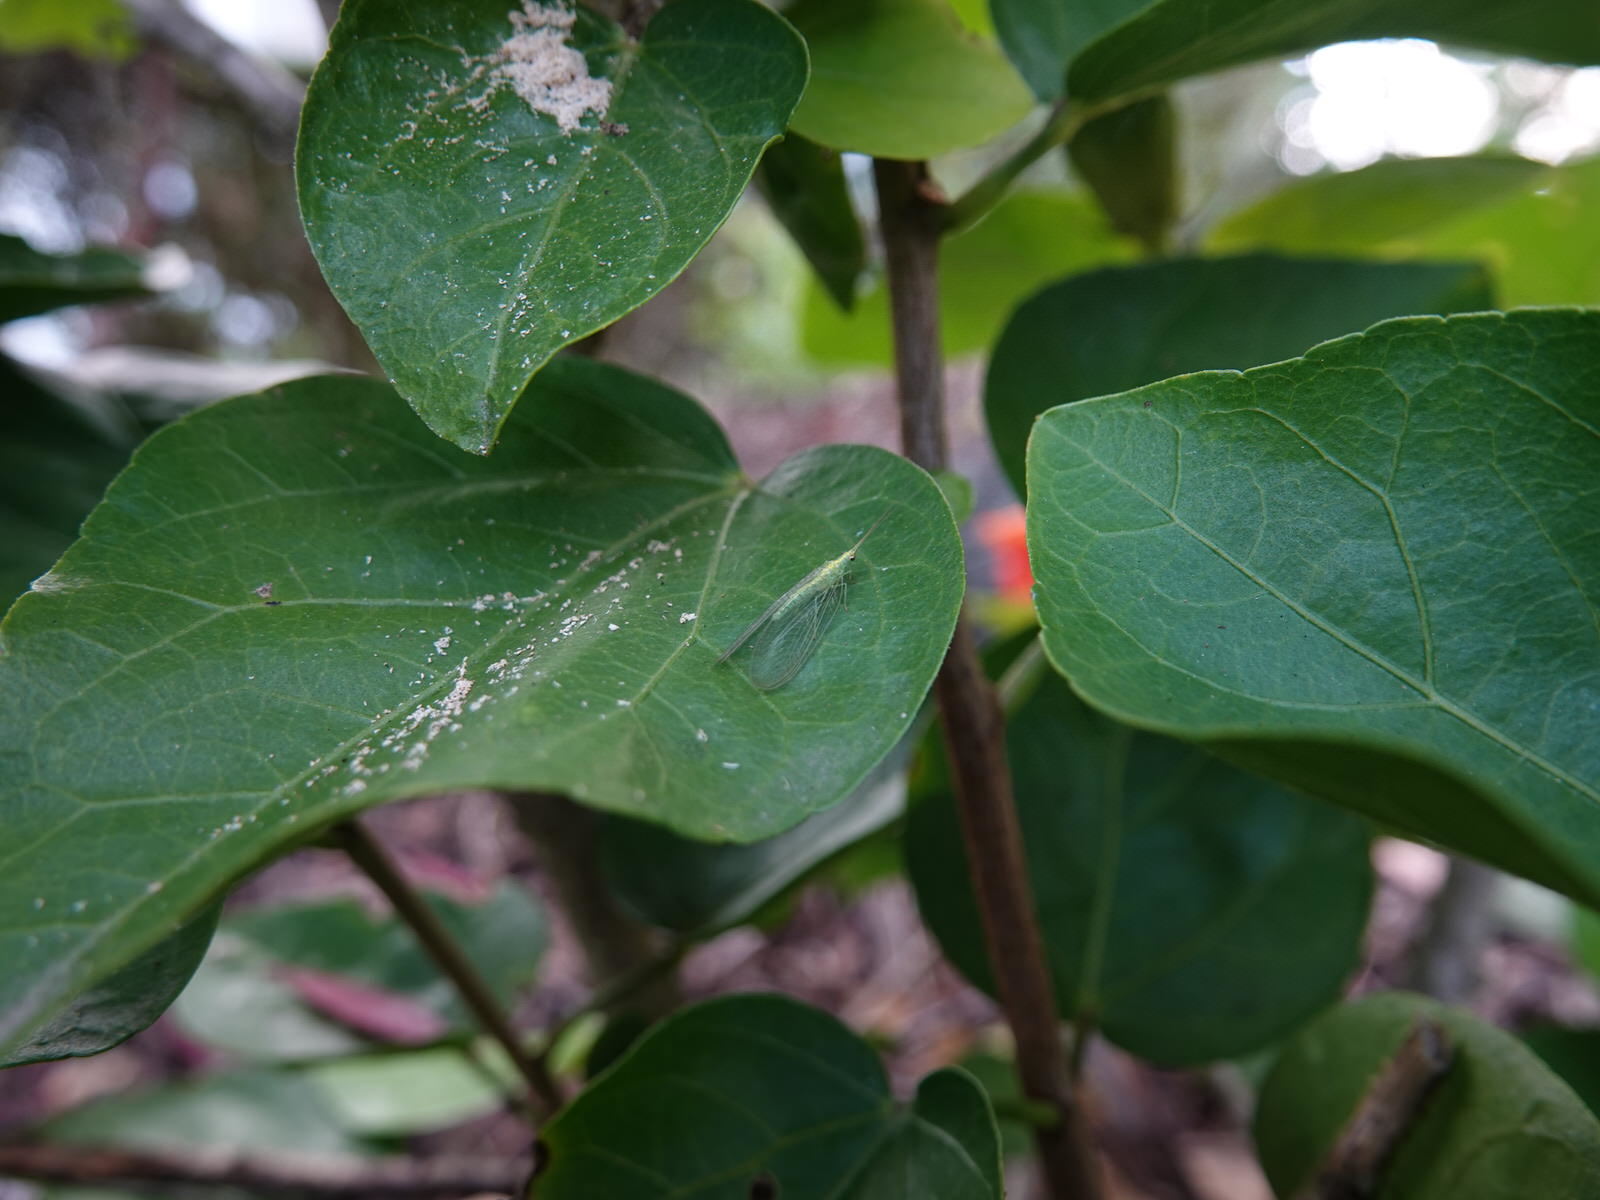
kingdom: Animalia
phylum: Arthropoda
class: Insecta
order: Neuroptera
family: Chrysopidae
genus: Mallada
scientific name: Mallada basalis
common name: Green lacewing
